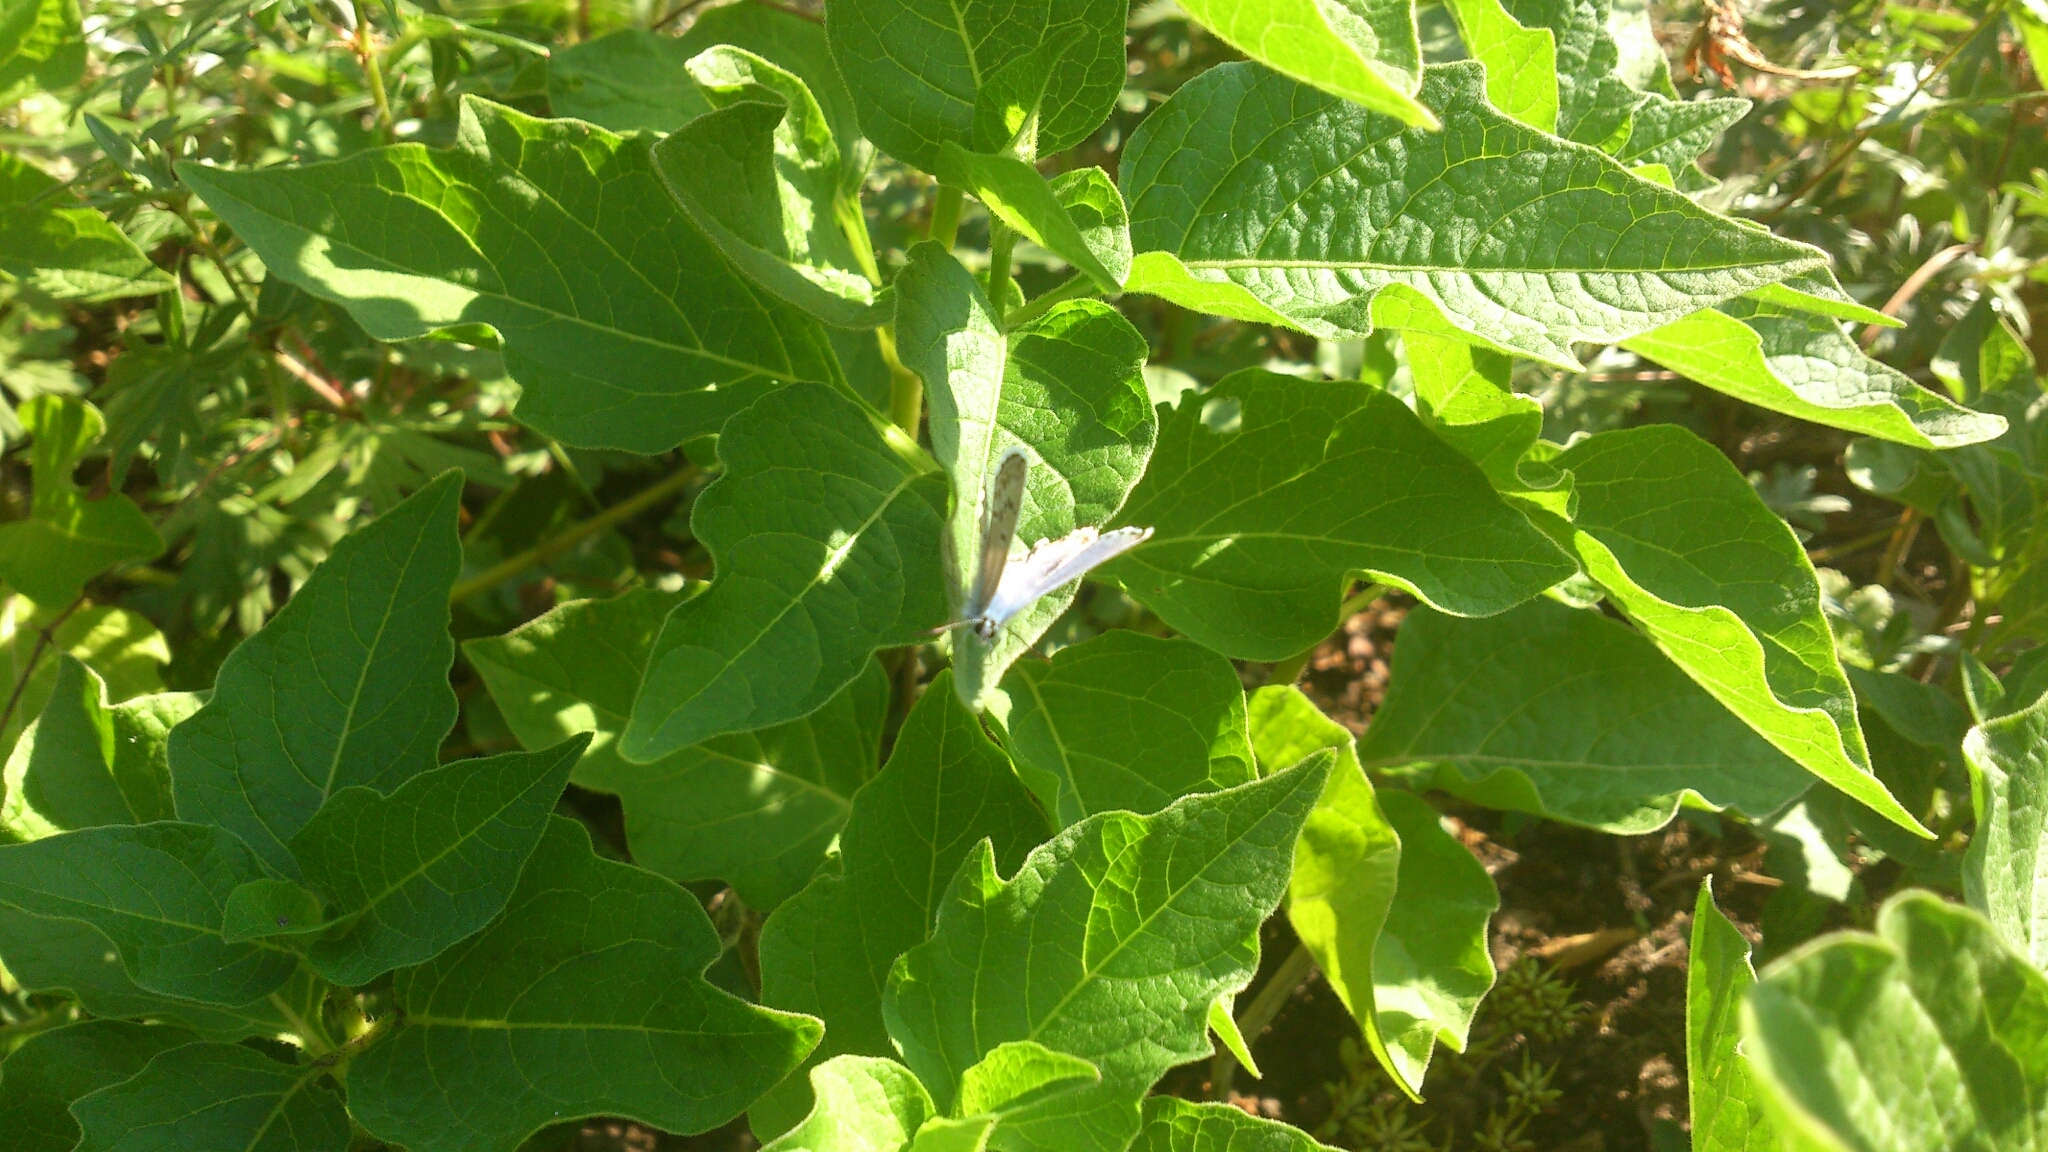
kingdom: Animalia
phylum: Arthropoda
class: Insecta
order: Lepidoptera
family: Lycaenidae
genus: Plebejus
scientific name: Plebejus argus
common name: Silver-studded blue
